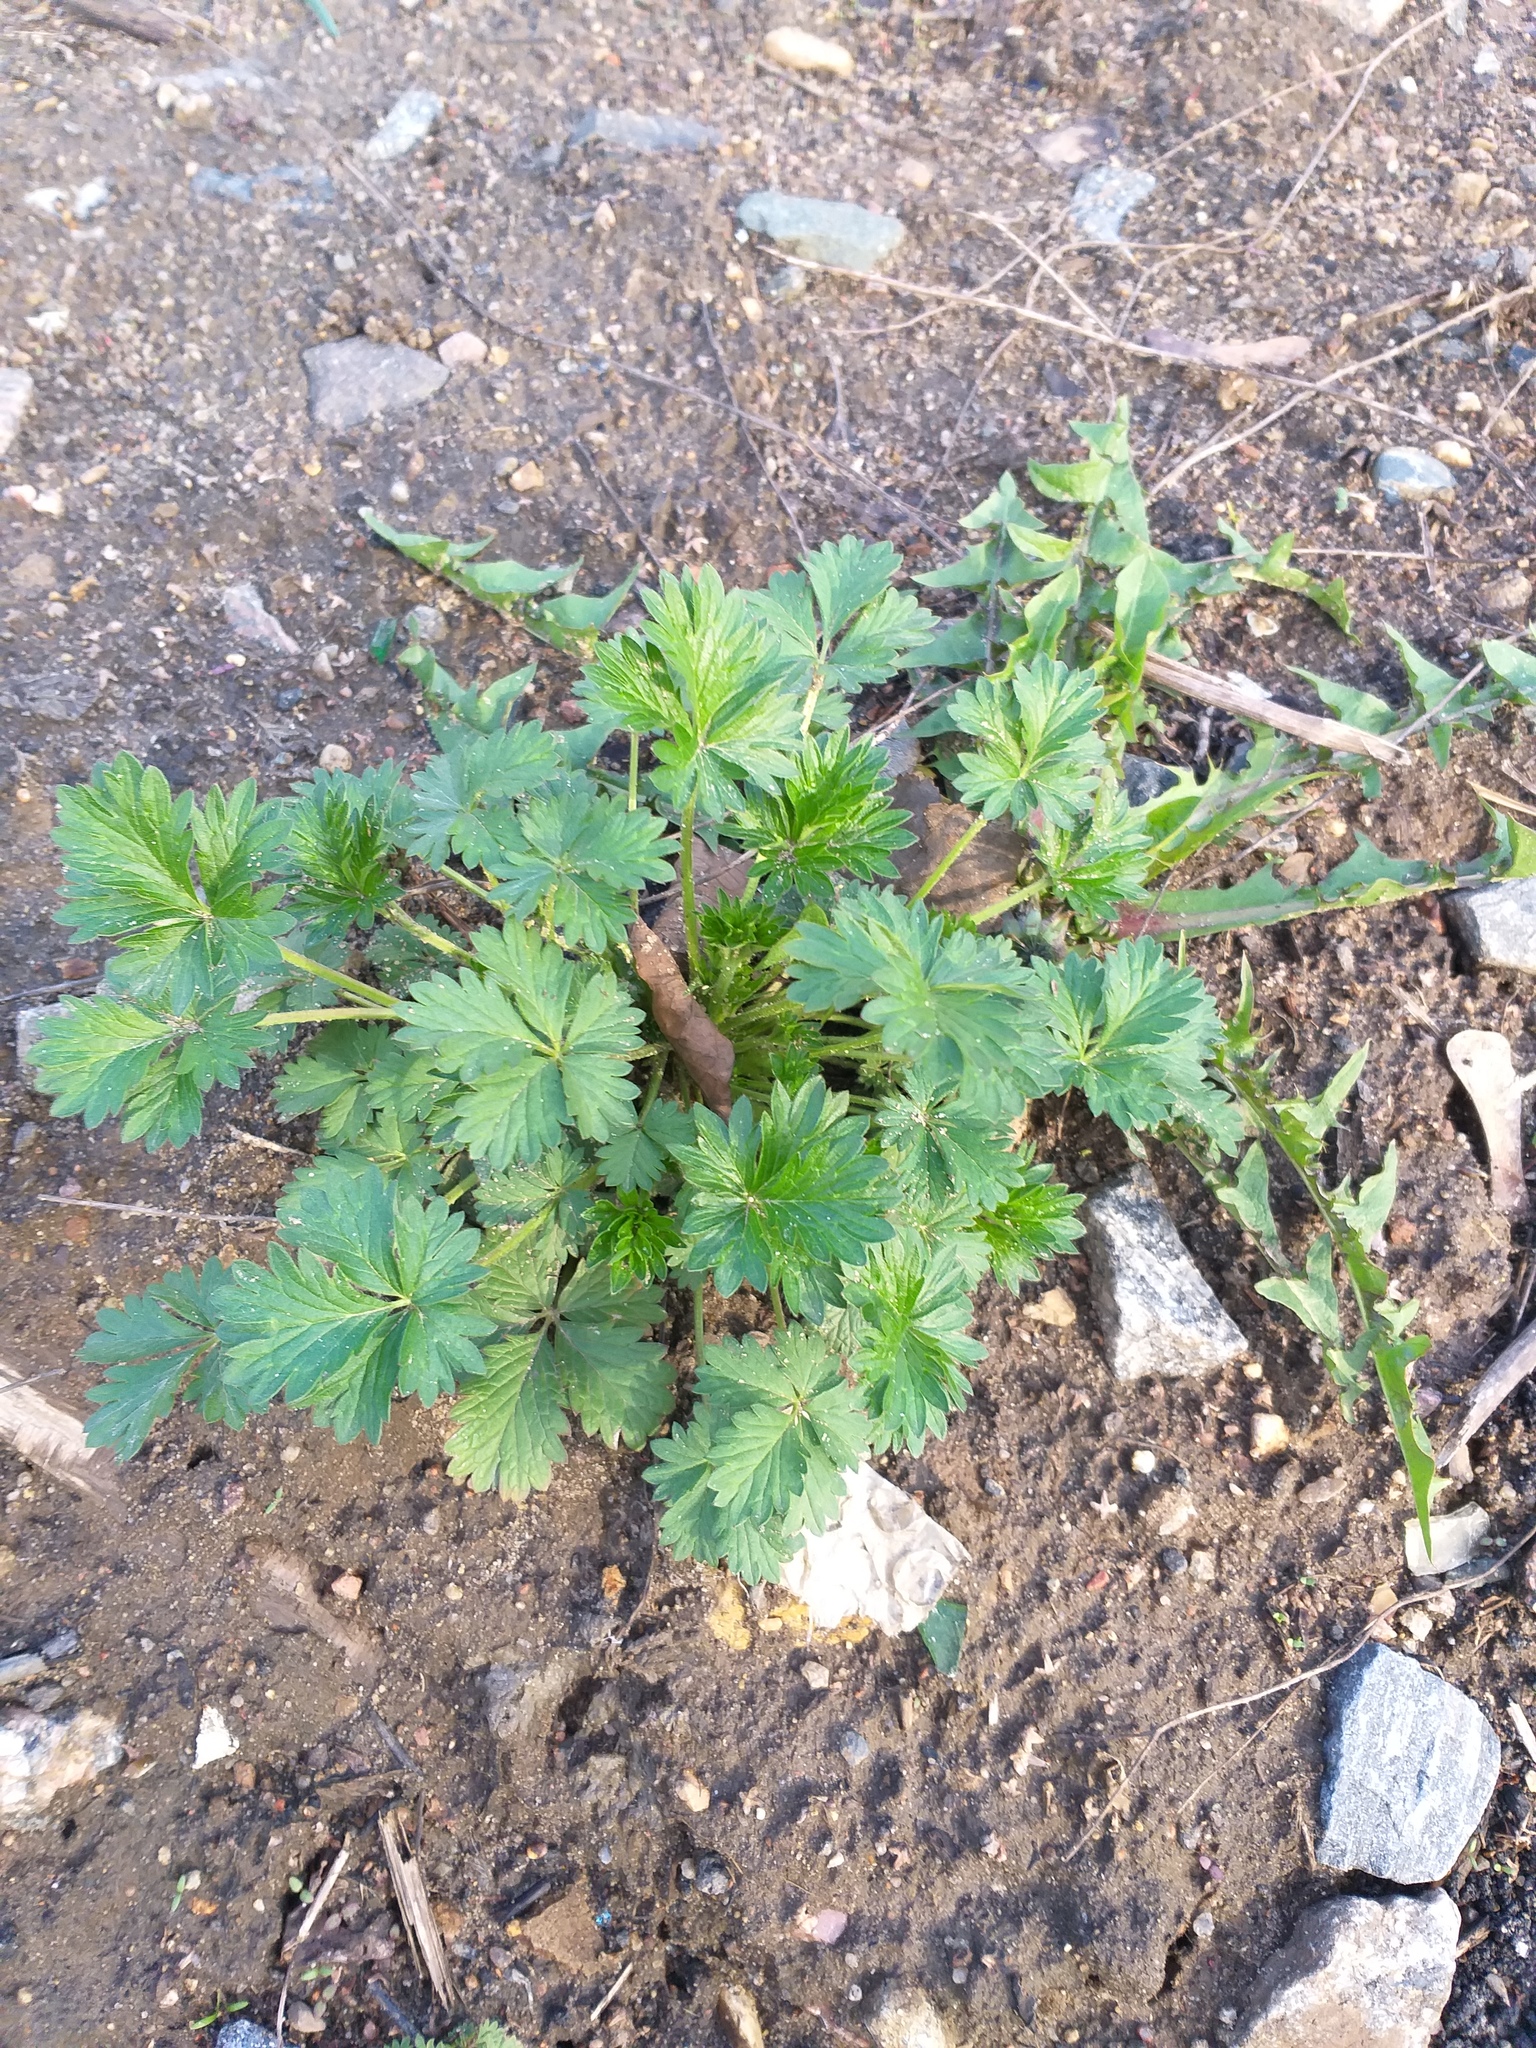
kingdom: Plantae
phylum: Tracheophyta
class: Magnoliopsida
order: Rosales
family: Rosaceae
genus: Potentilla
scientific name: Potentilla intermedia
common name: Downy cinquefoil
